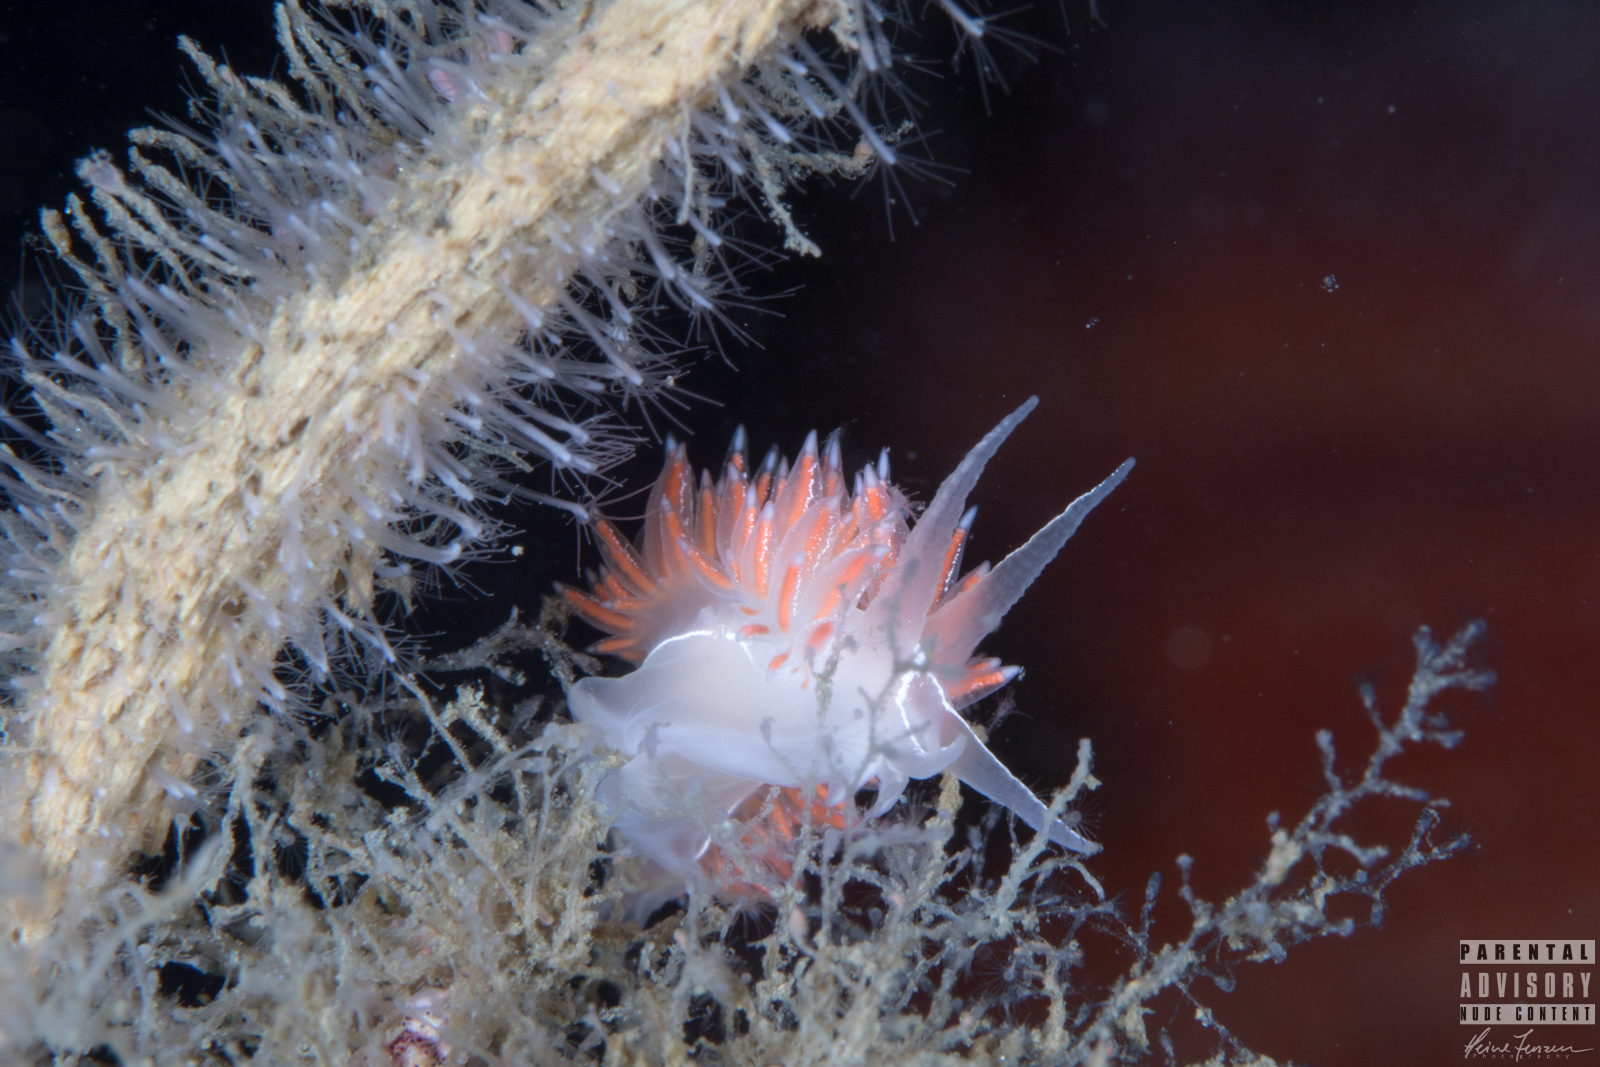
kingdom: Animalia
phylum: Mollusca
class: Gastropoda
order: Nudibranchia
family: Coryphellidae
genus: Coryphella
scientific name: Coryphella chriskaugei
